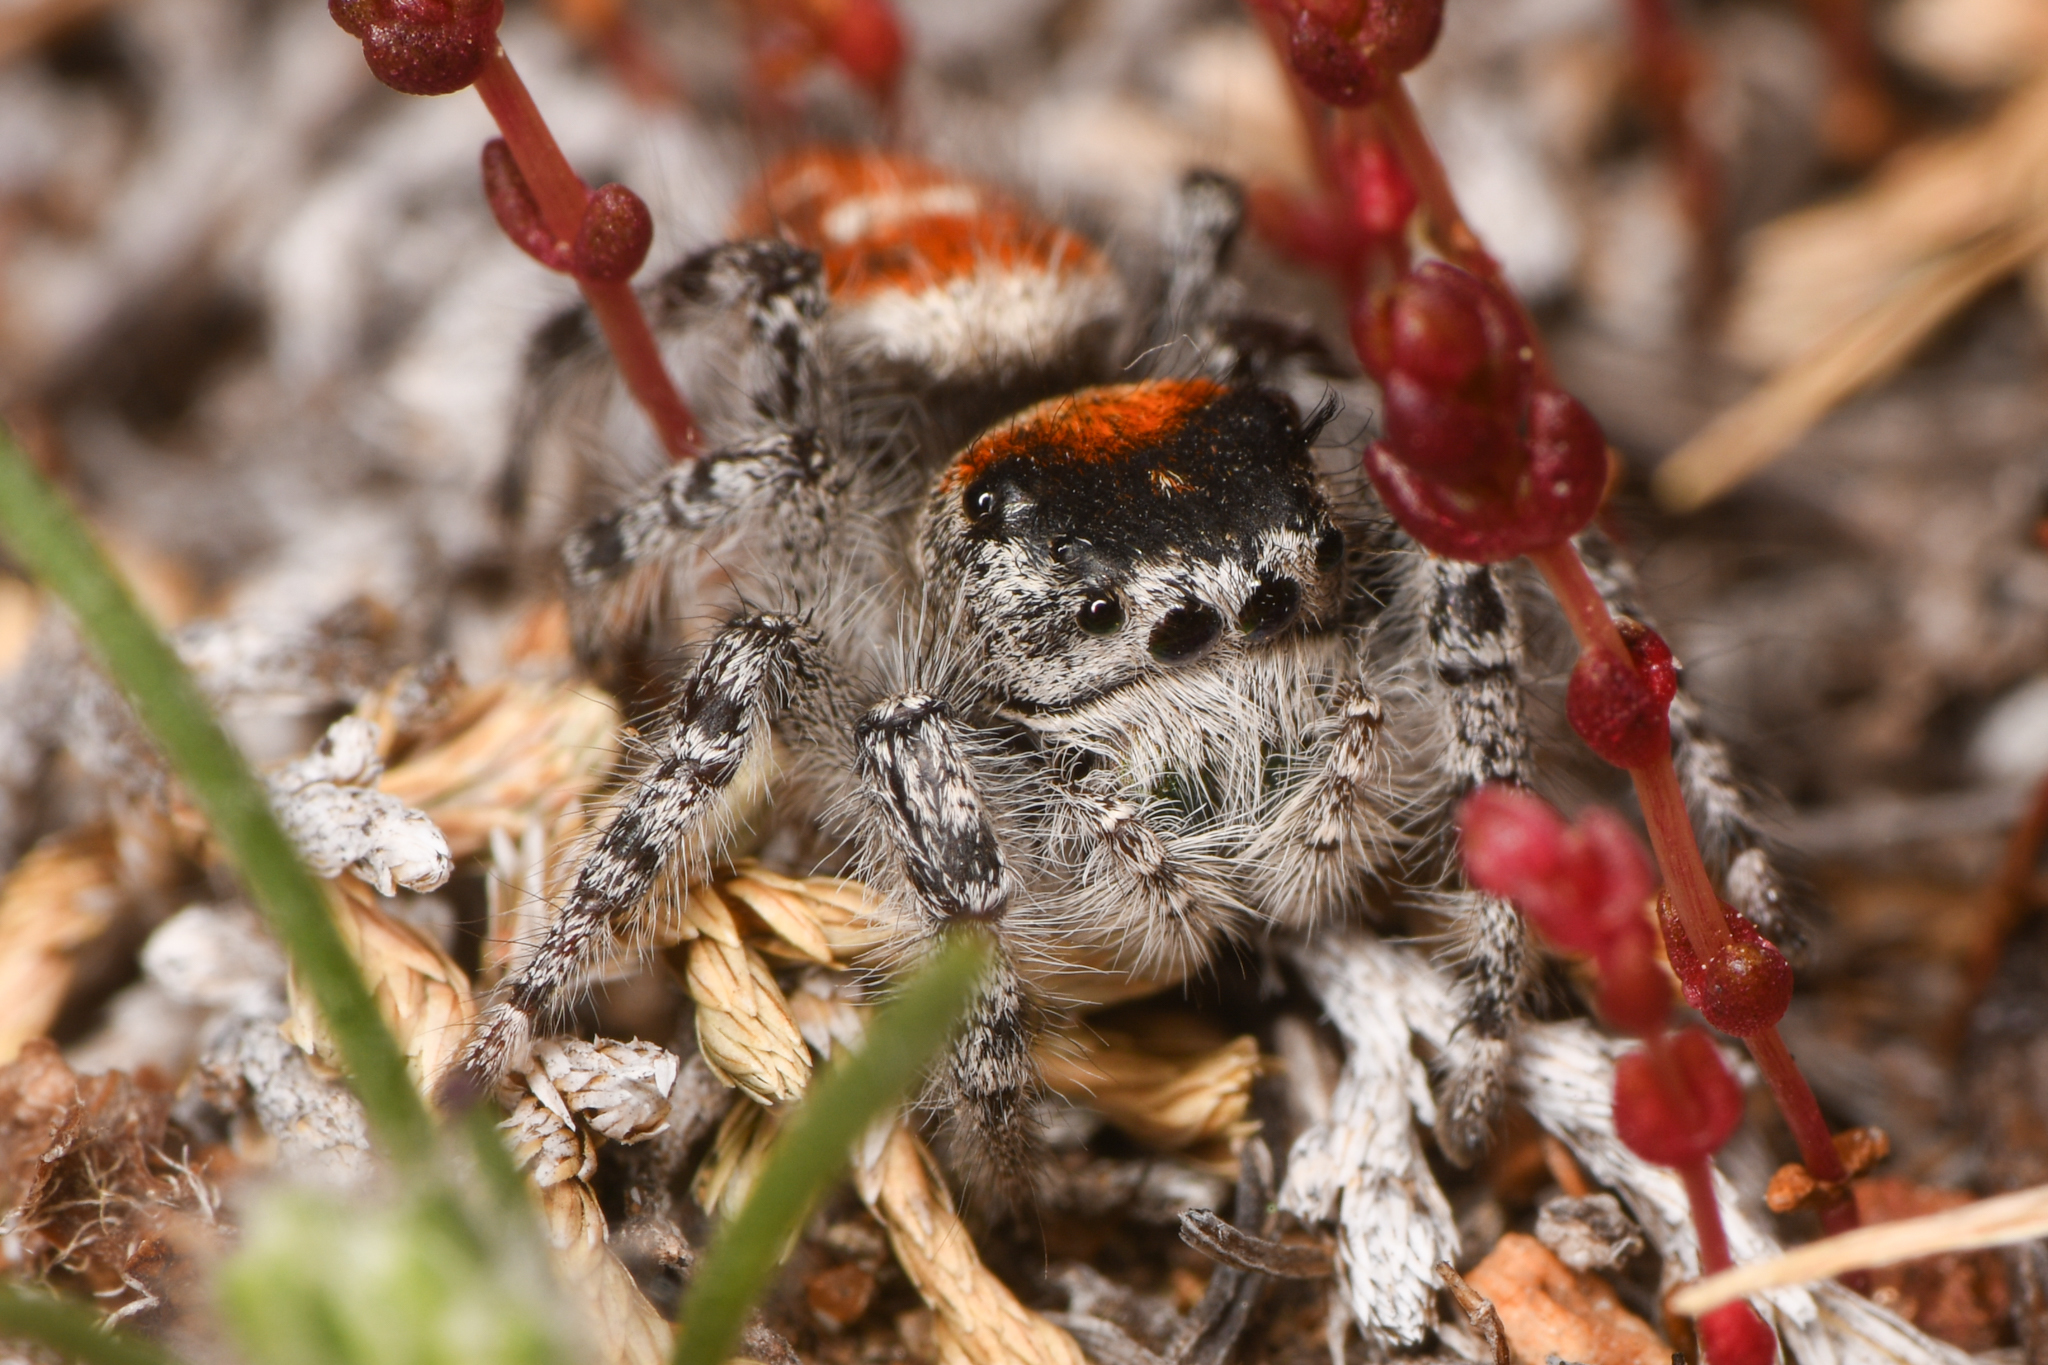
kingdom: Animalia
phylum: Arthropoda
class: Arachnida
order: Araneae
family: Salticidae
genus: Phidippus
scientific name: Phidippus adumbratus
